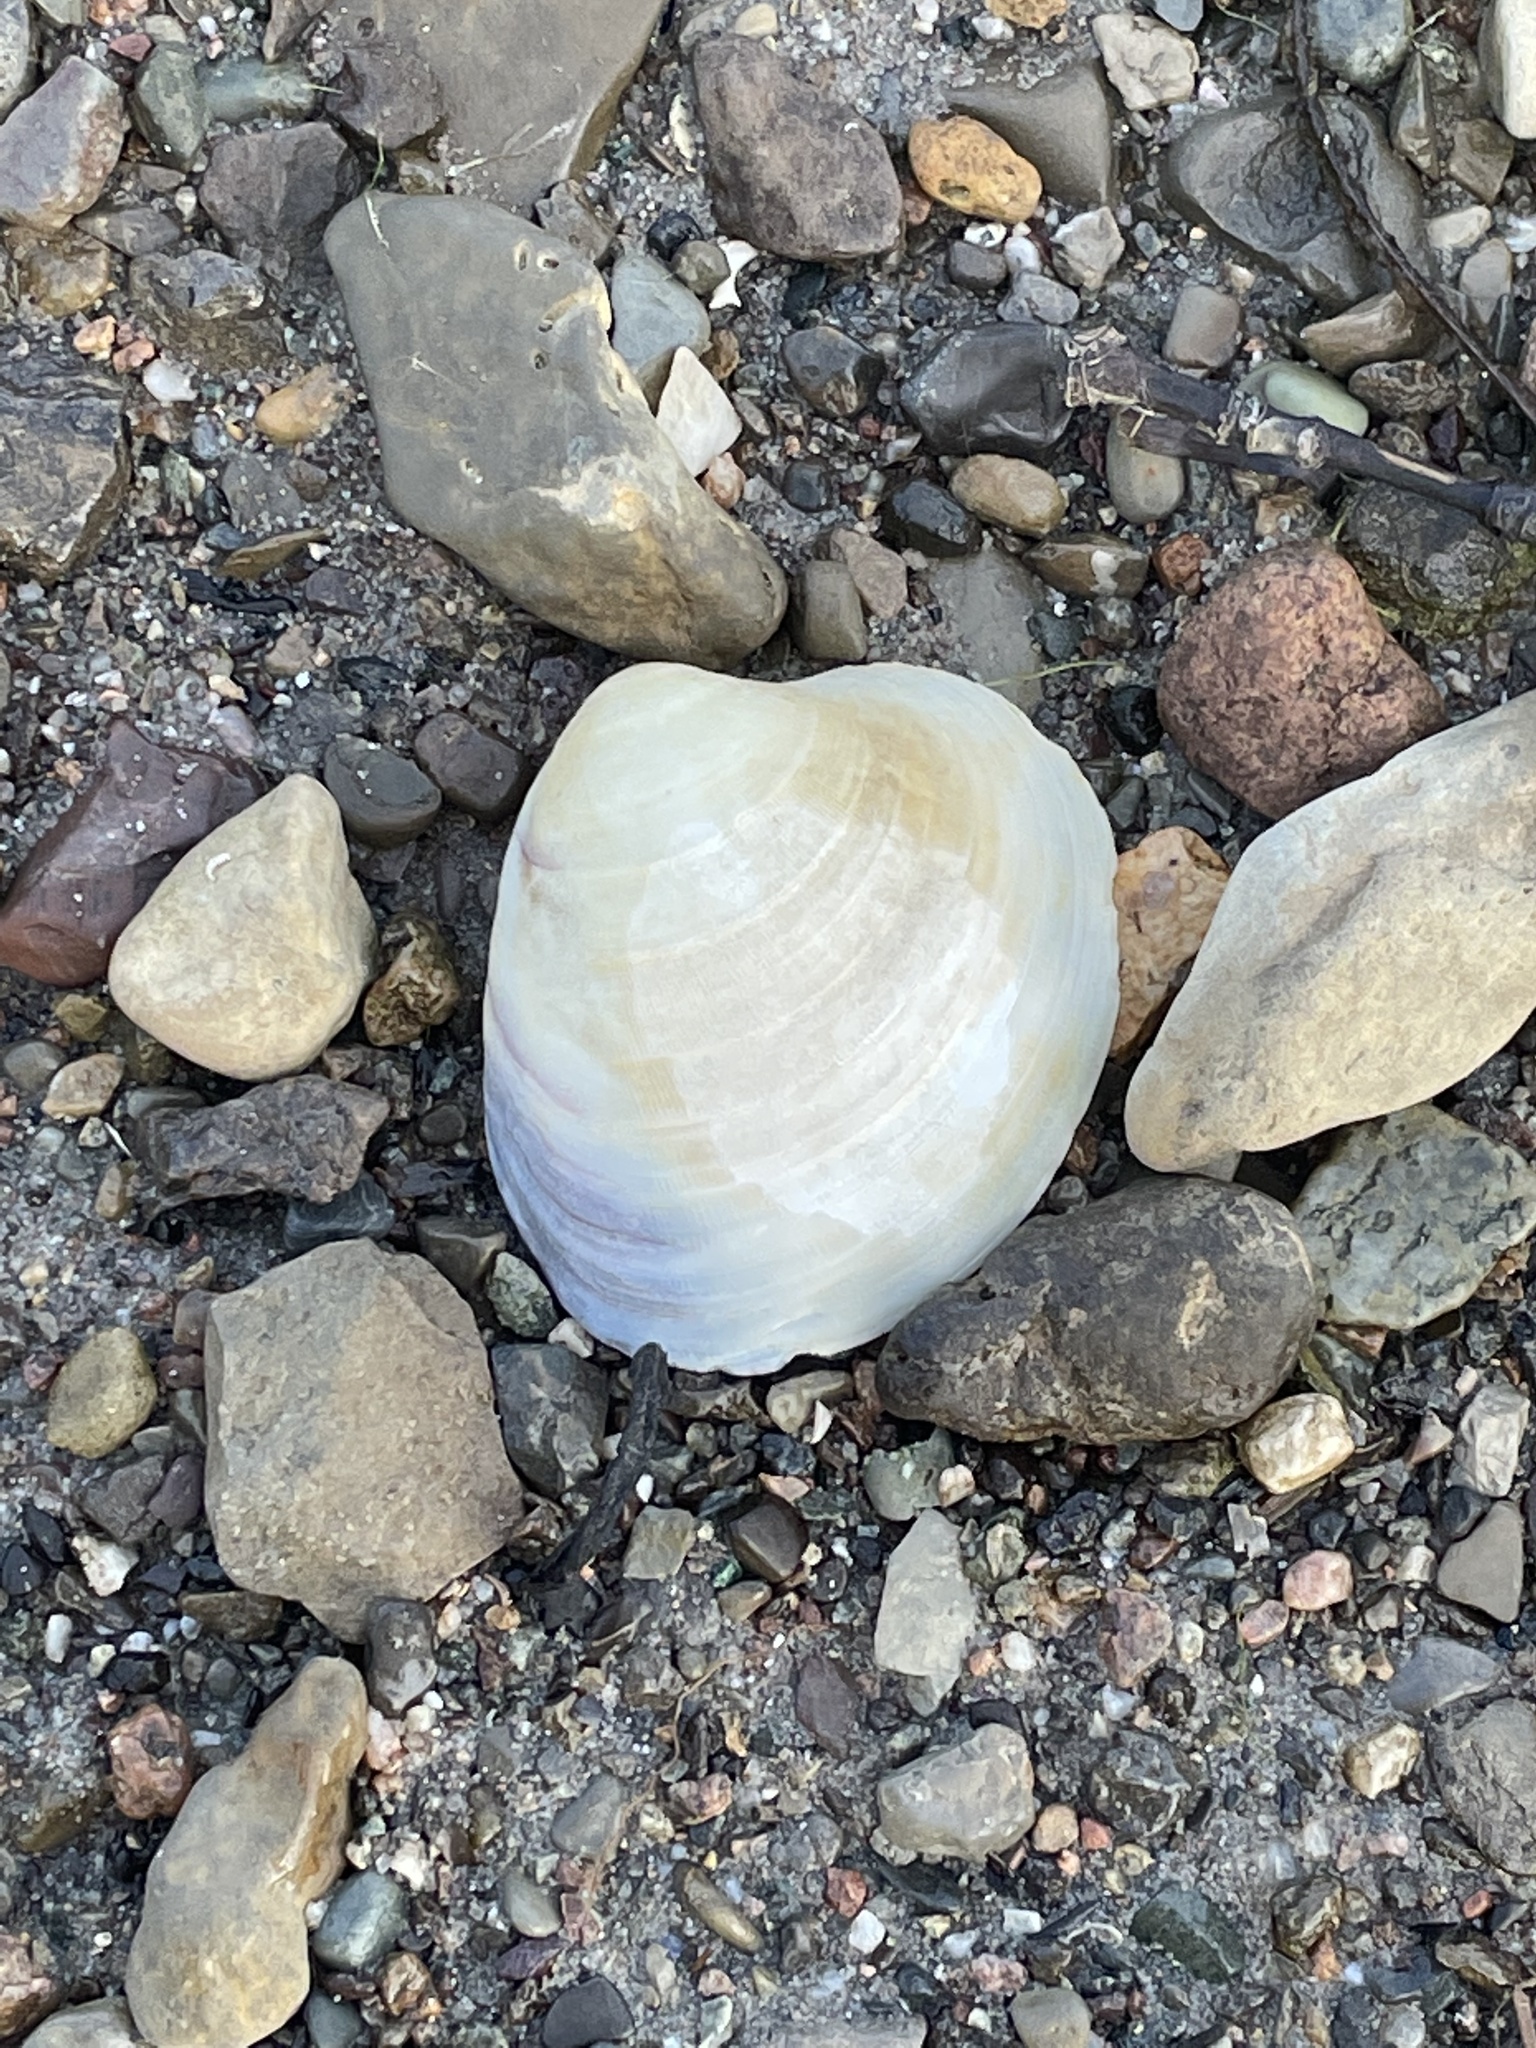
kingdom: Animalia
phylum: Mollusca
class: Bivalvia
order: Venerida
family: Veneridae
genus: Mercenaria
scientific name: Mercenaria mercenaria
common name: American hard-shelled clam
